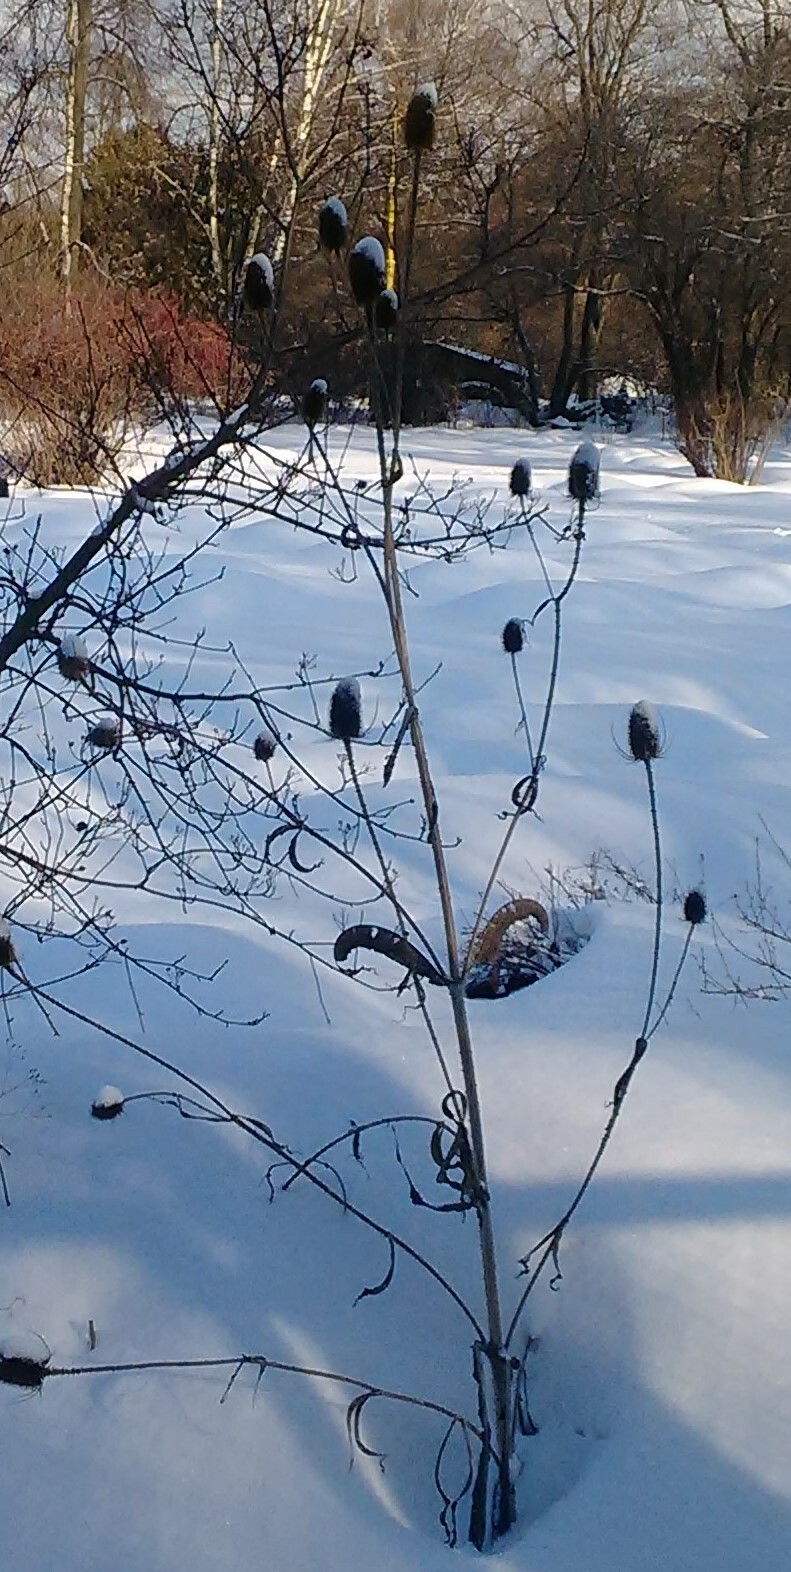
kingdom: Plantae
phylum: Tracheophyta
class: Magnoliopsida
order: Dipsacales
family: Caprifoliaceae
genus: Dipsacus
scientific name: Dipsacus fullonum
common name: Teasel
